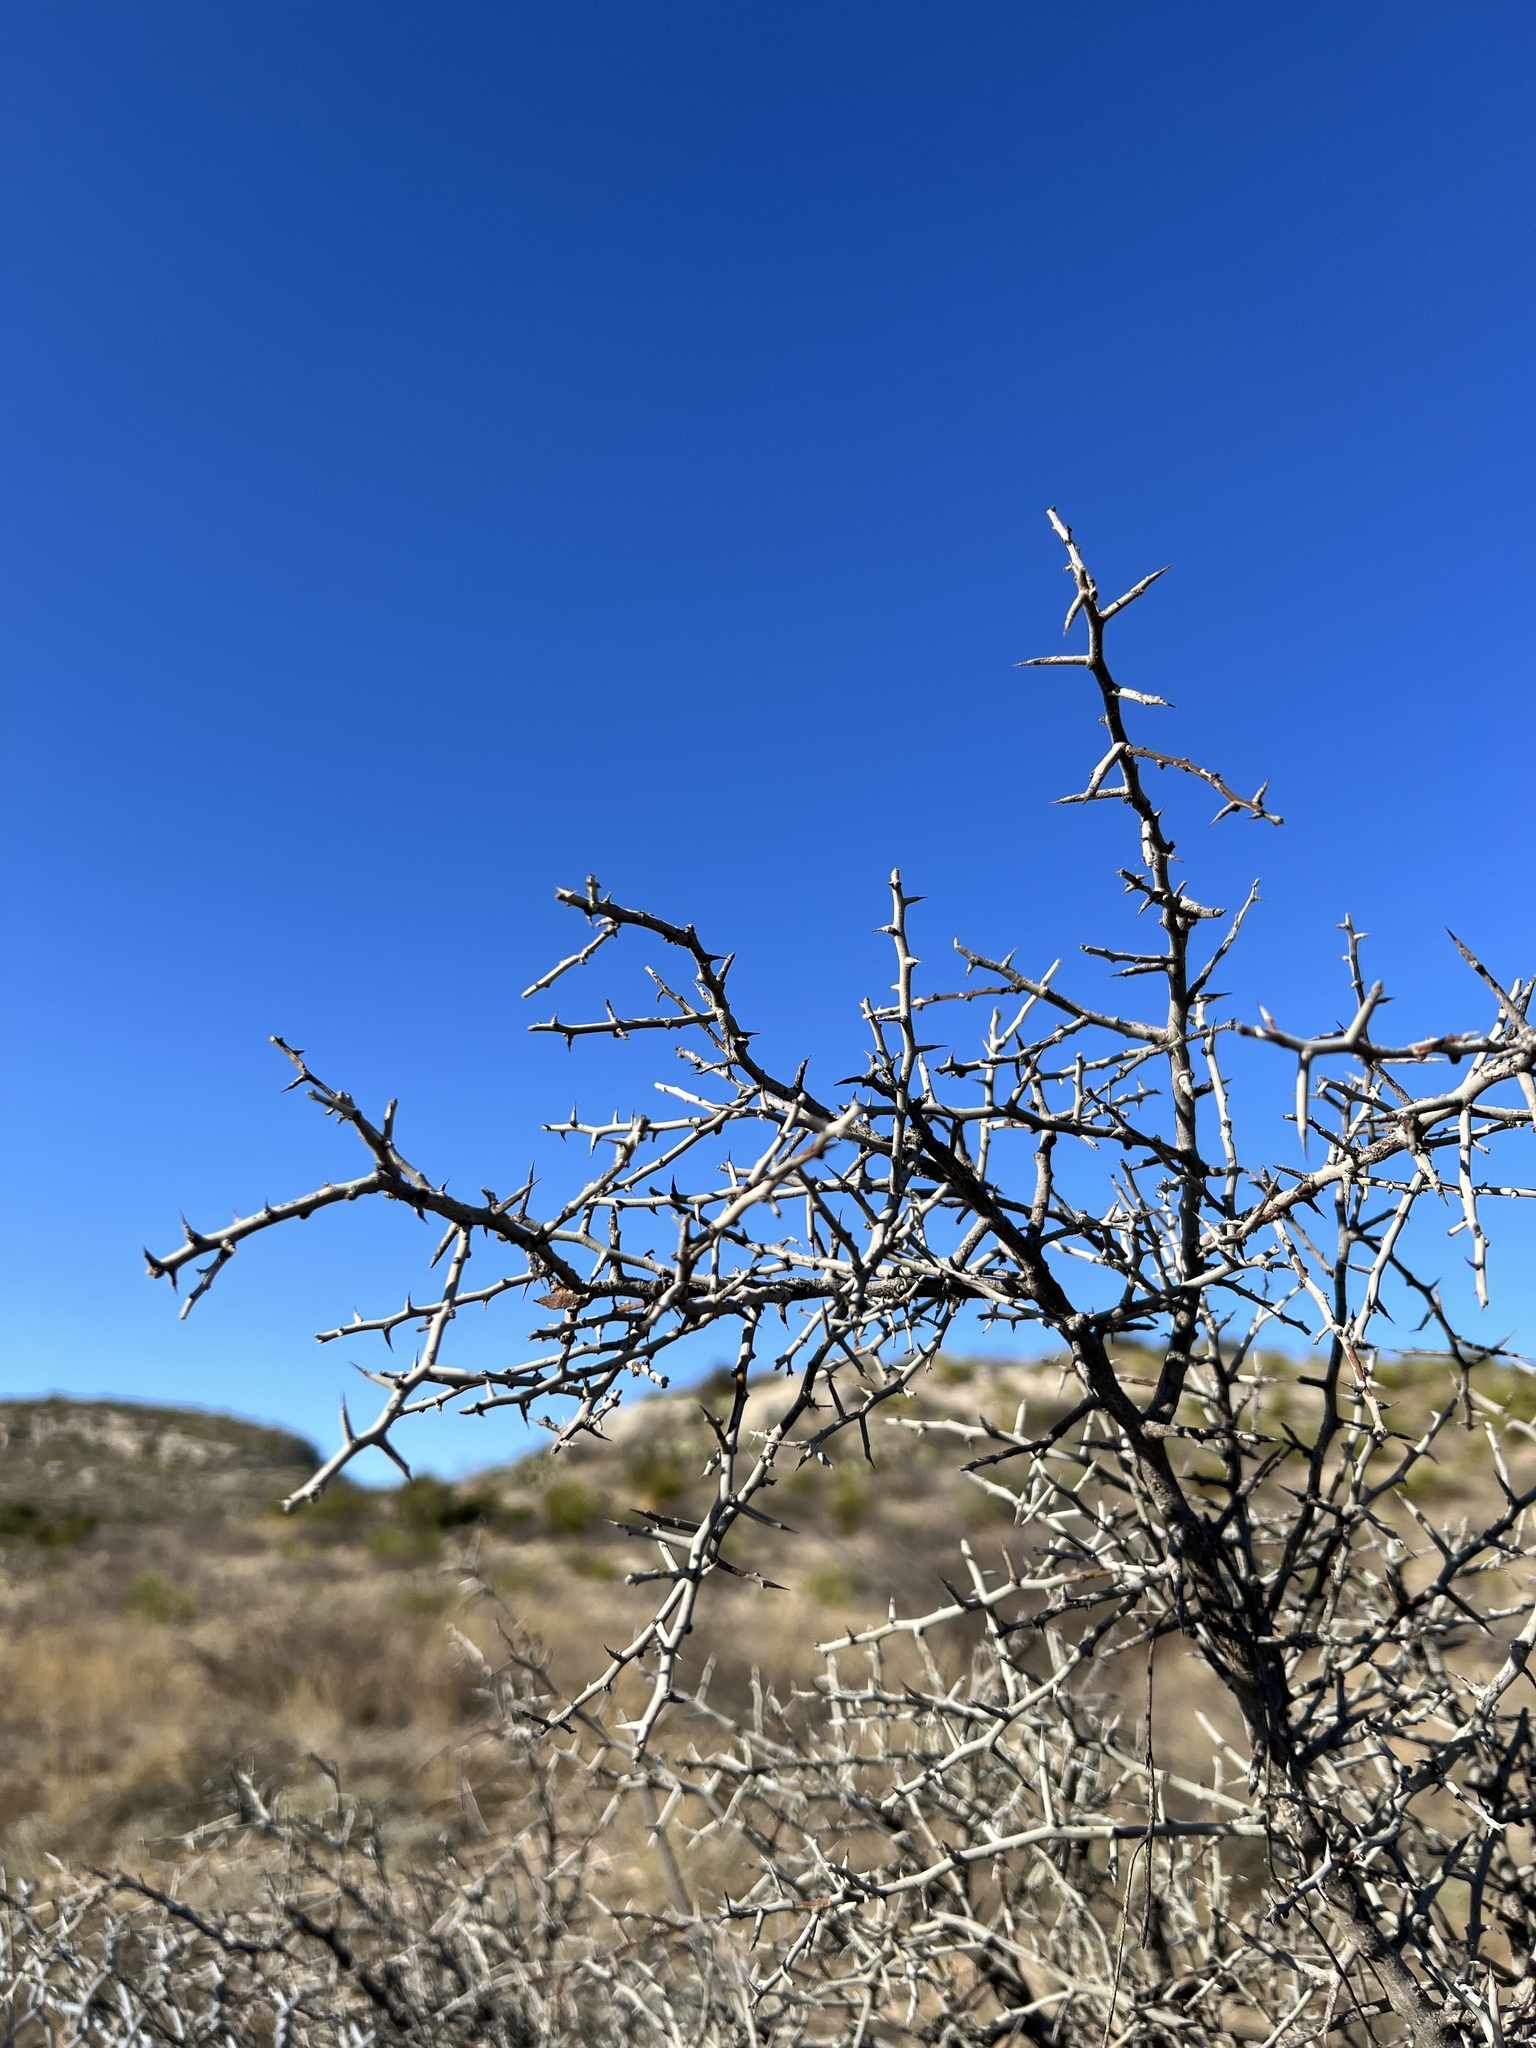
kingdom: Plantae
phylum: Tracheophyta
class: Magnoliopsida
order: Rosales
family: Rhamnaceae
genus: Sarcomphalus
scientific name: Sarcomphalus obtusifolius
